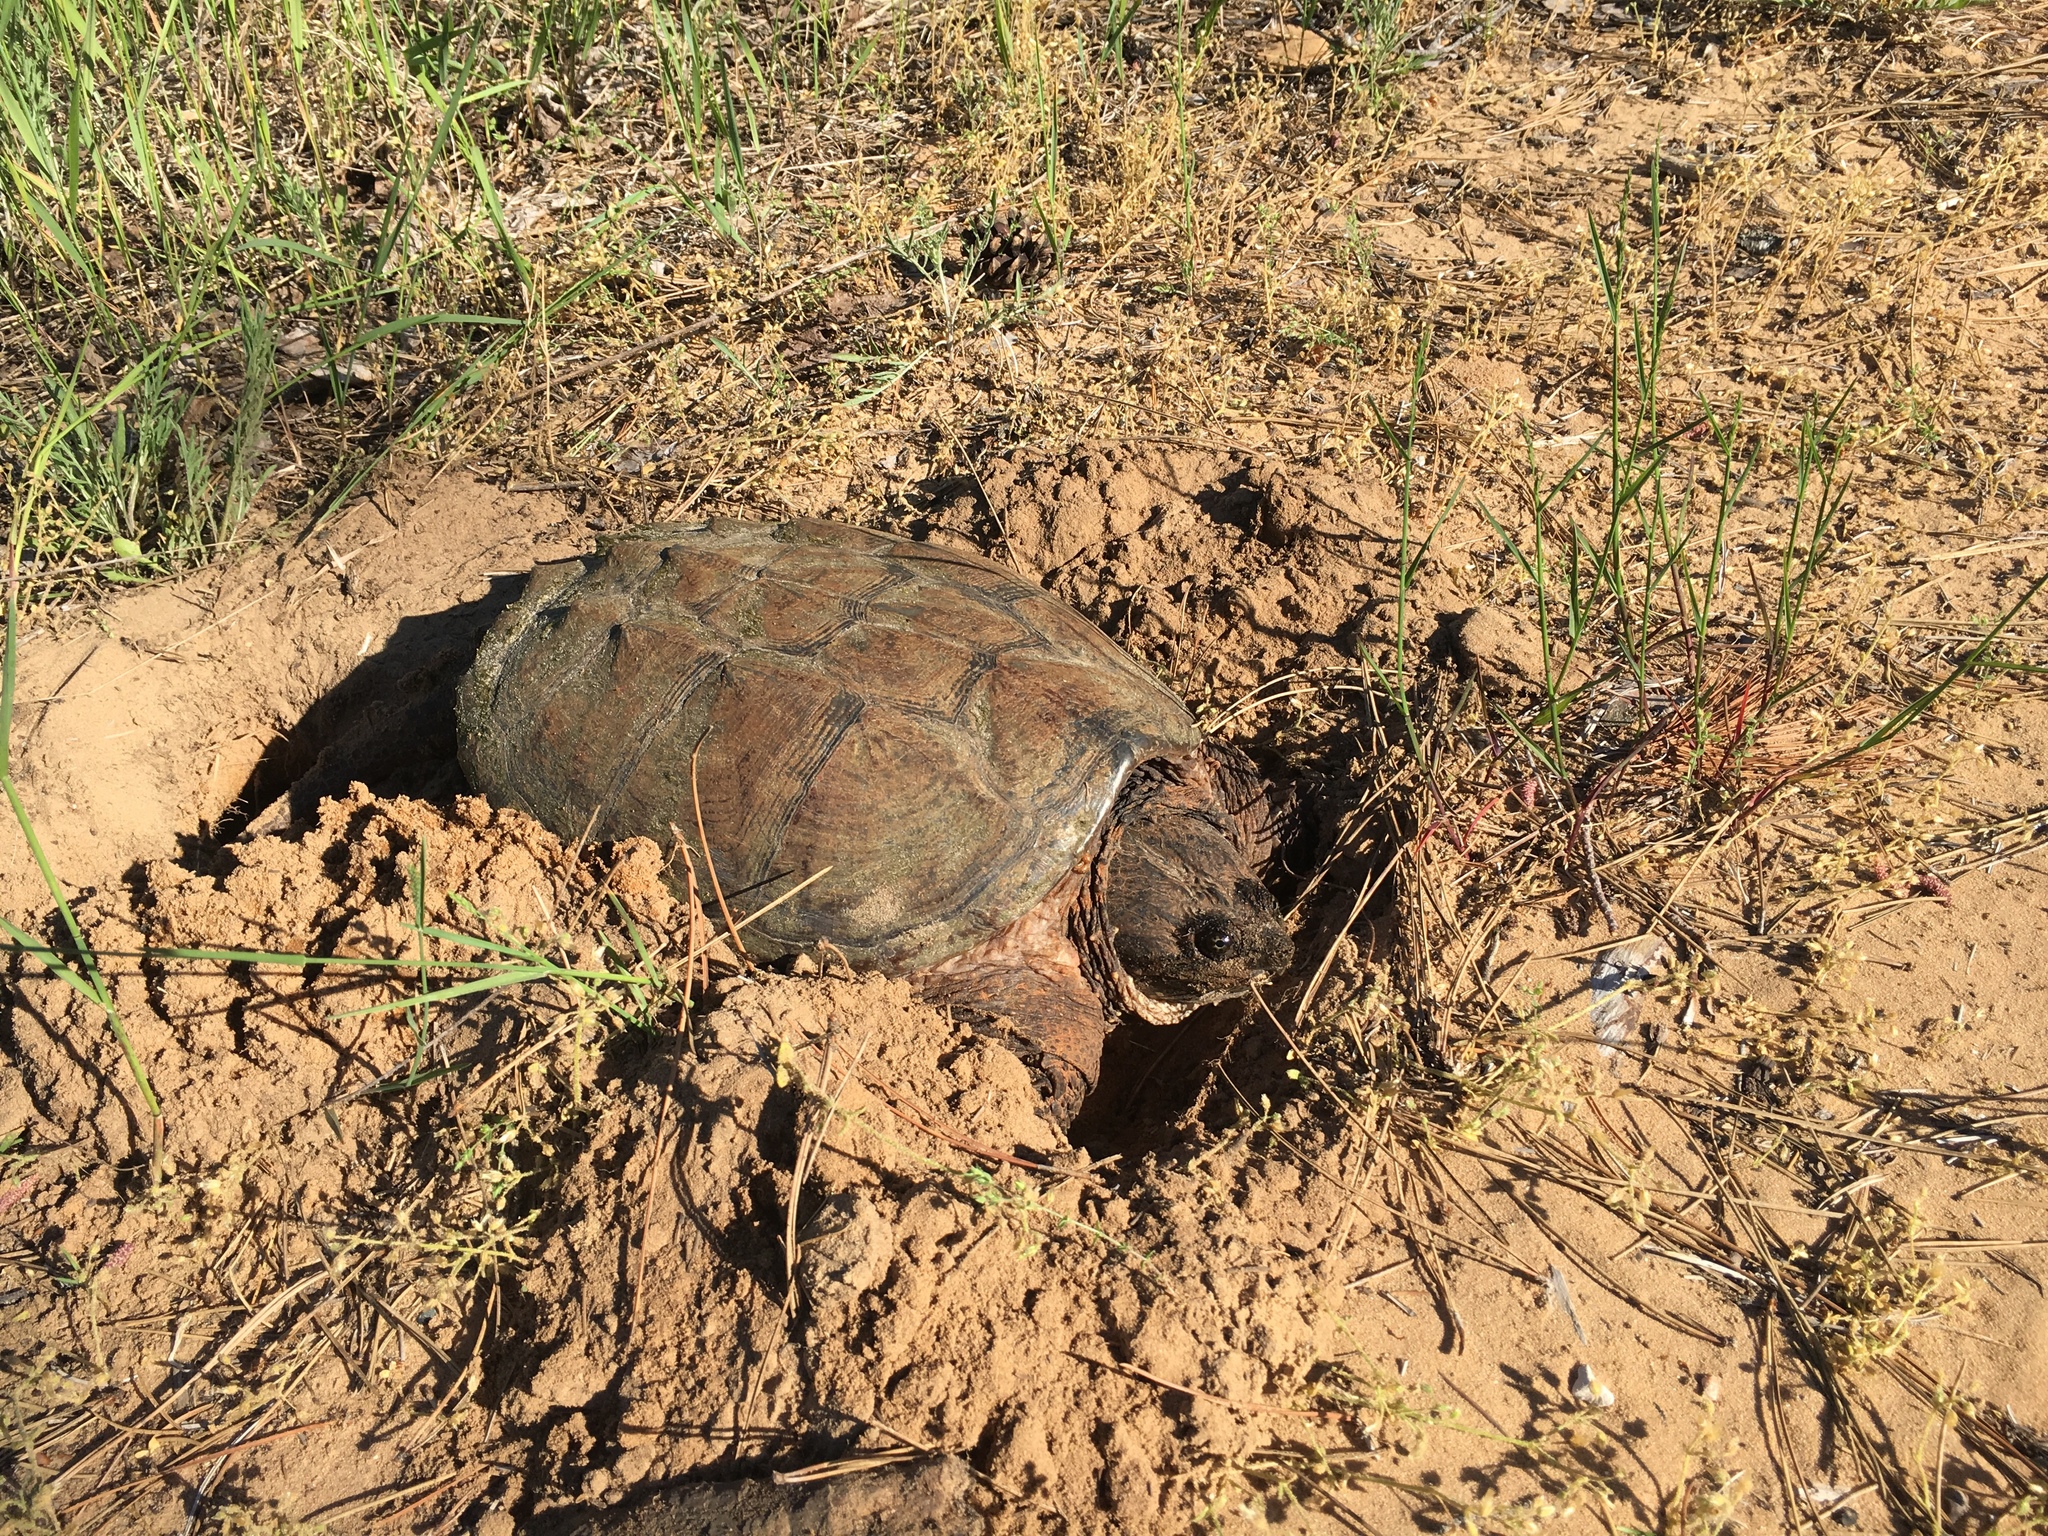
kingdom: Animalia
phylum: Chordata
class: Testudines
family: Chelydridae
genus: Chelydra
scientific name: Chelydra serpentina
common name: Common snapping turtle
